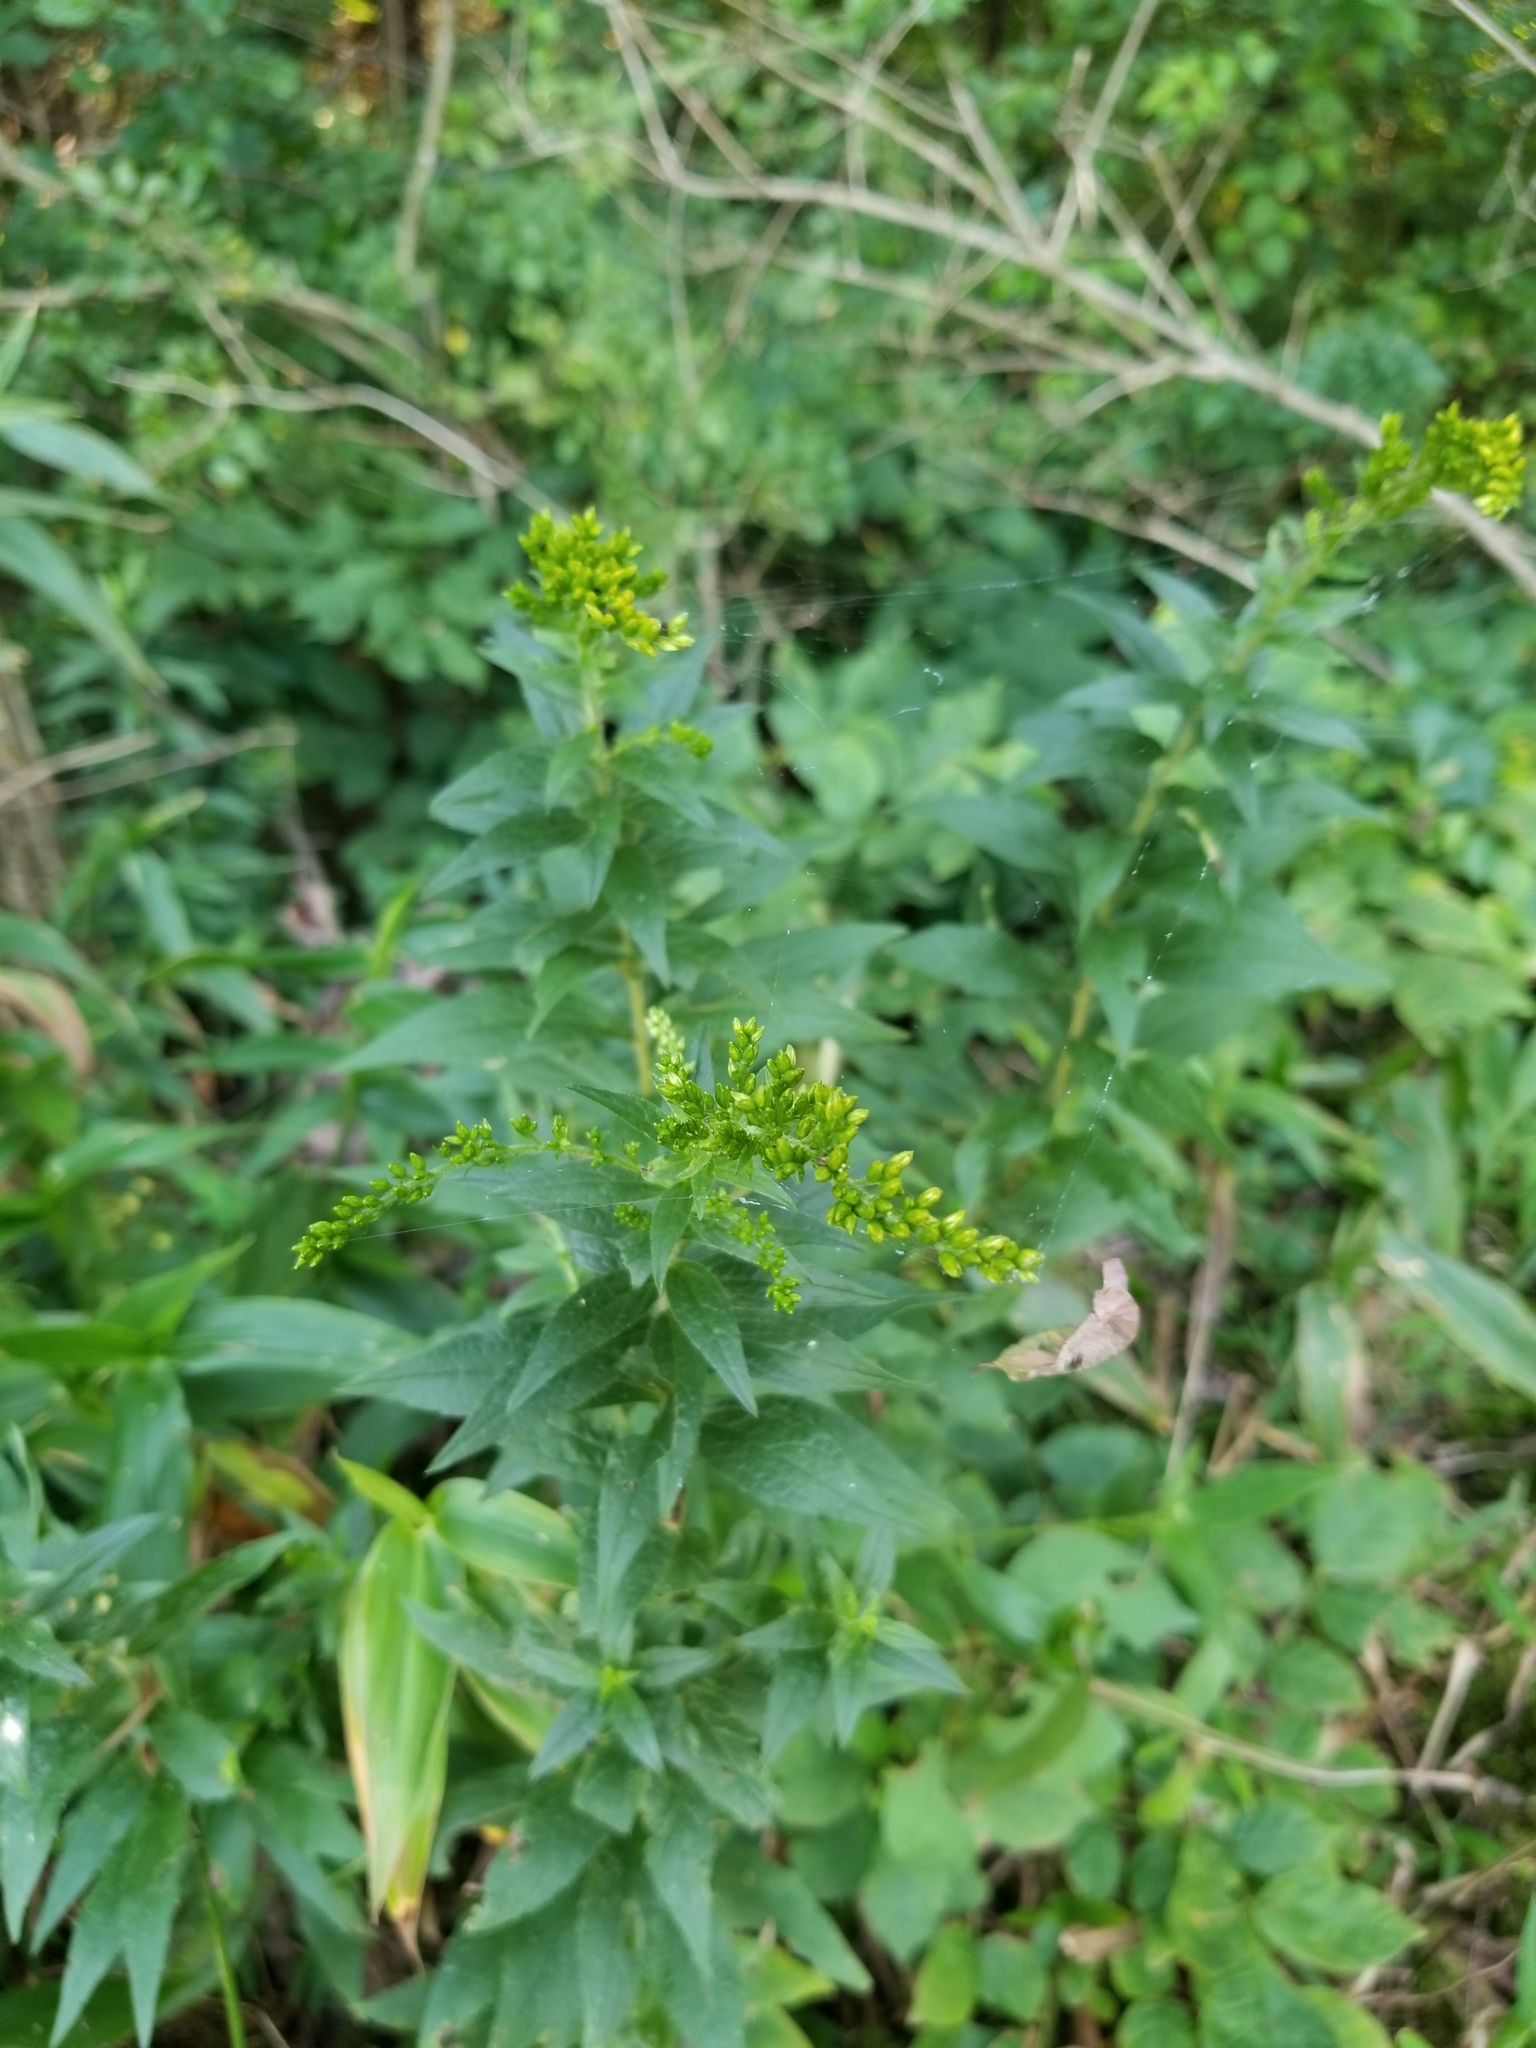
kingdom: Plantae
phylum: Tracheophyta
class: Magnoliopsida
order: Asterales
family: Asteraceae
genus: Solidago
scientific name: Solidago rugosa
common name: Rough-stemmed goldenrod
